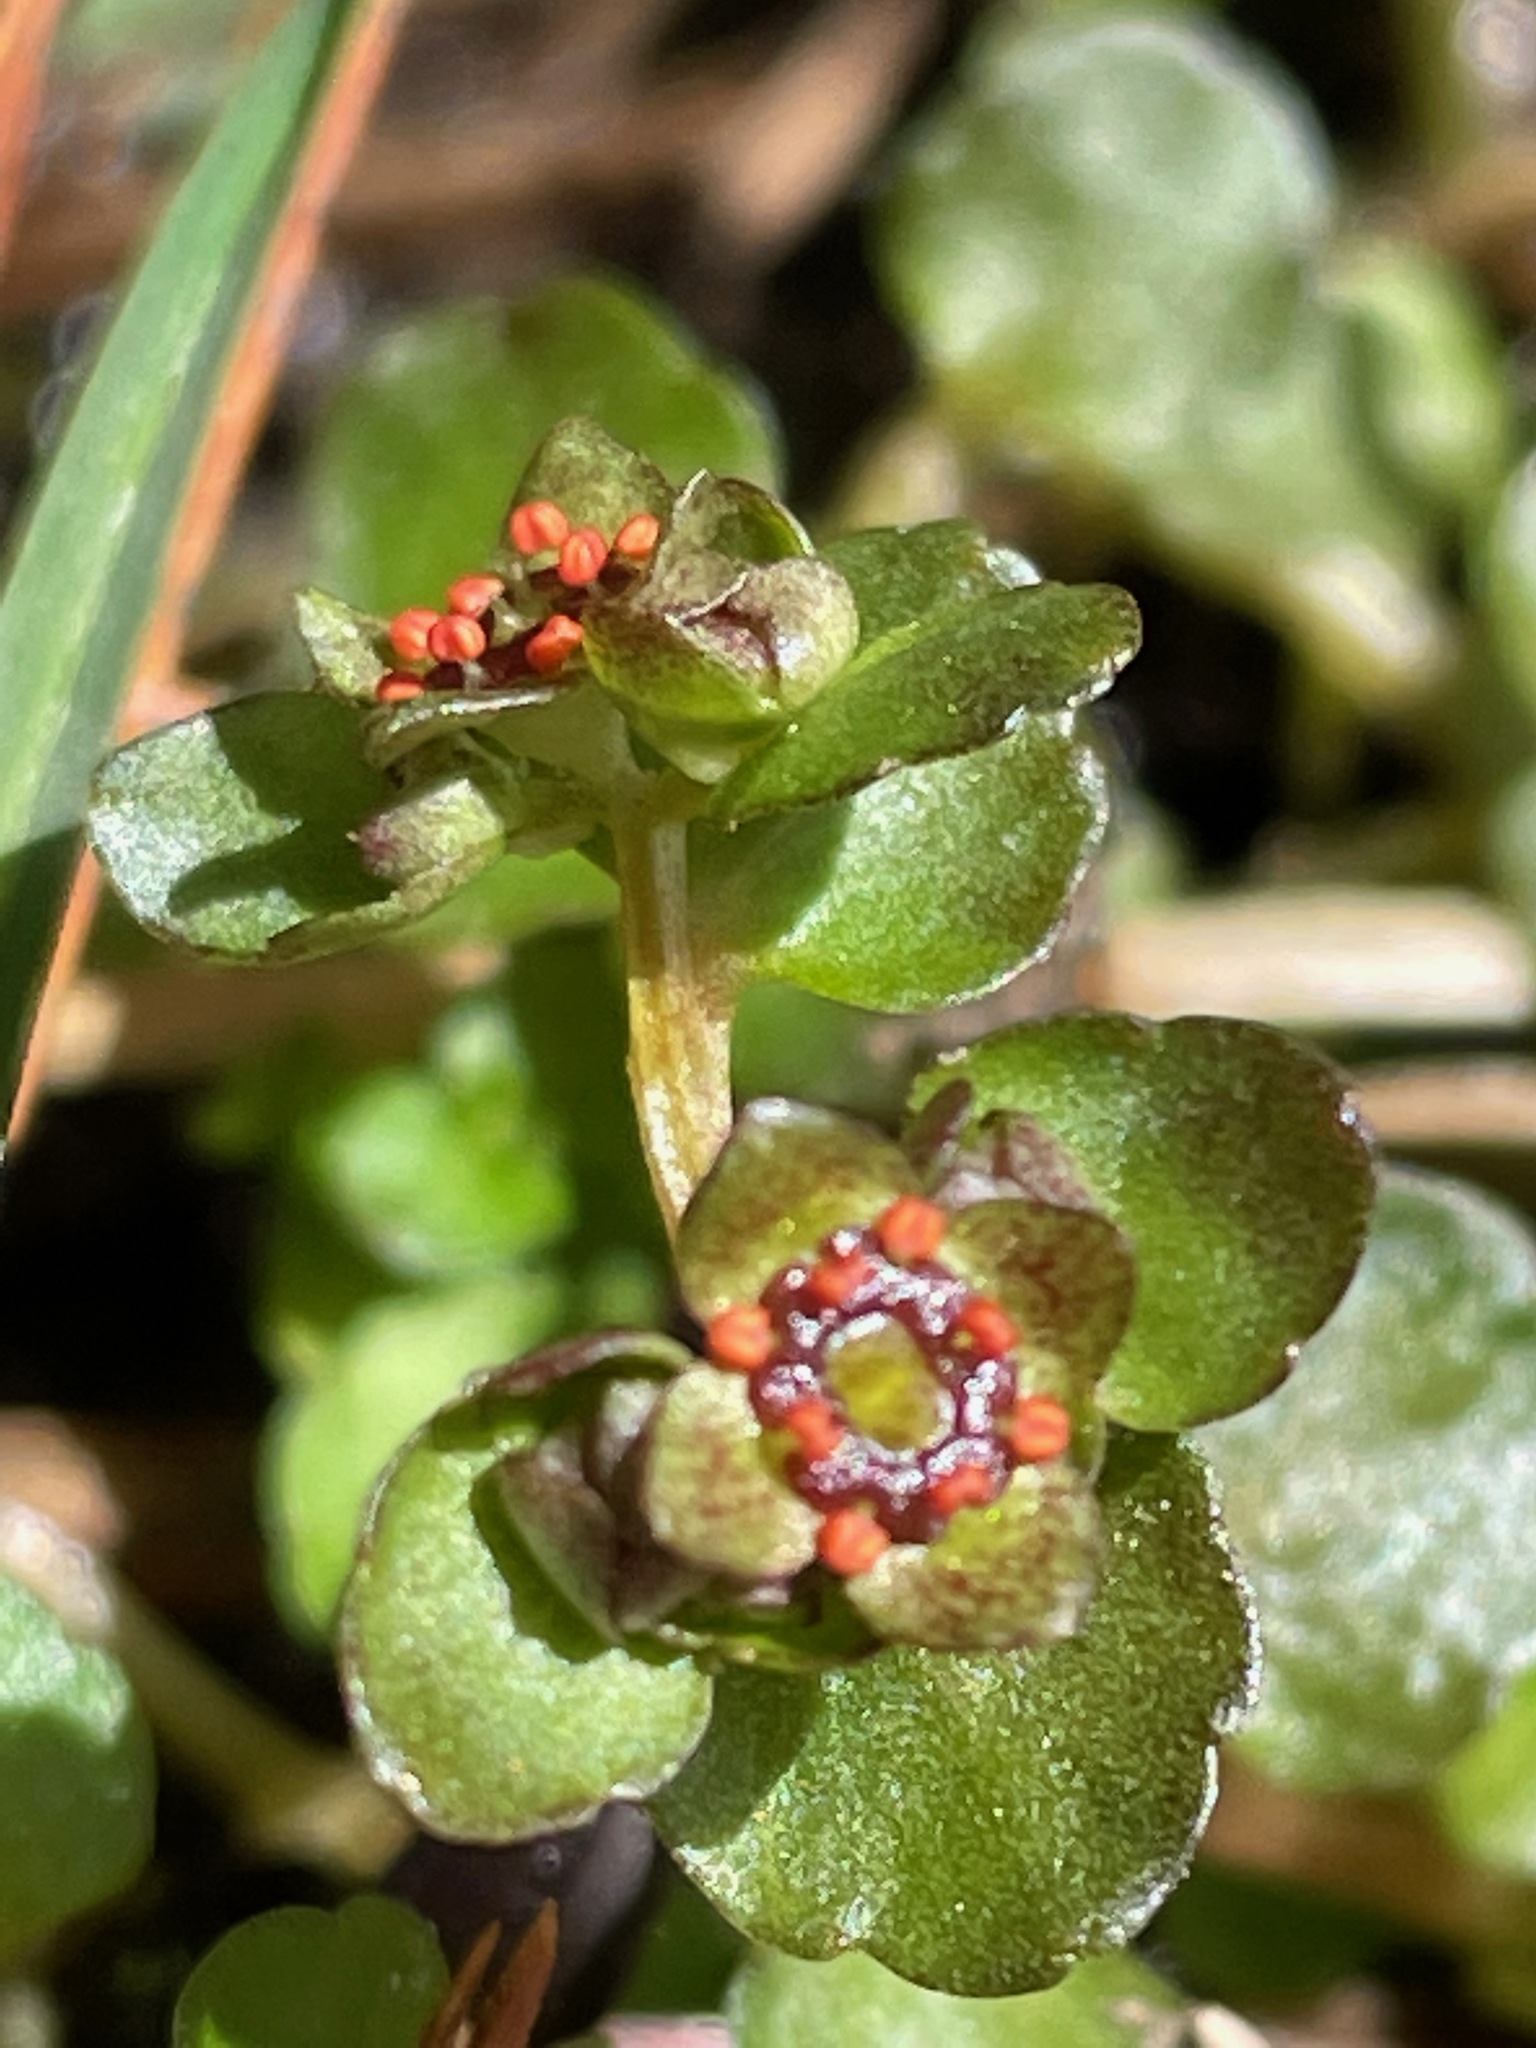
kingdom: Plantae
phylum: Tracheophyta
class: Magnoliopsida
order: Saxifragales
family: Saxifragaceae
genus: Chrysosplenium
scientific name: Chrysosplenium americanum
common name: American golden-saxifrage
